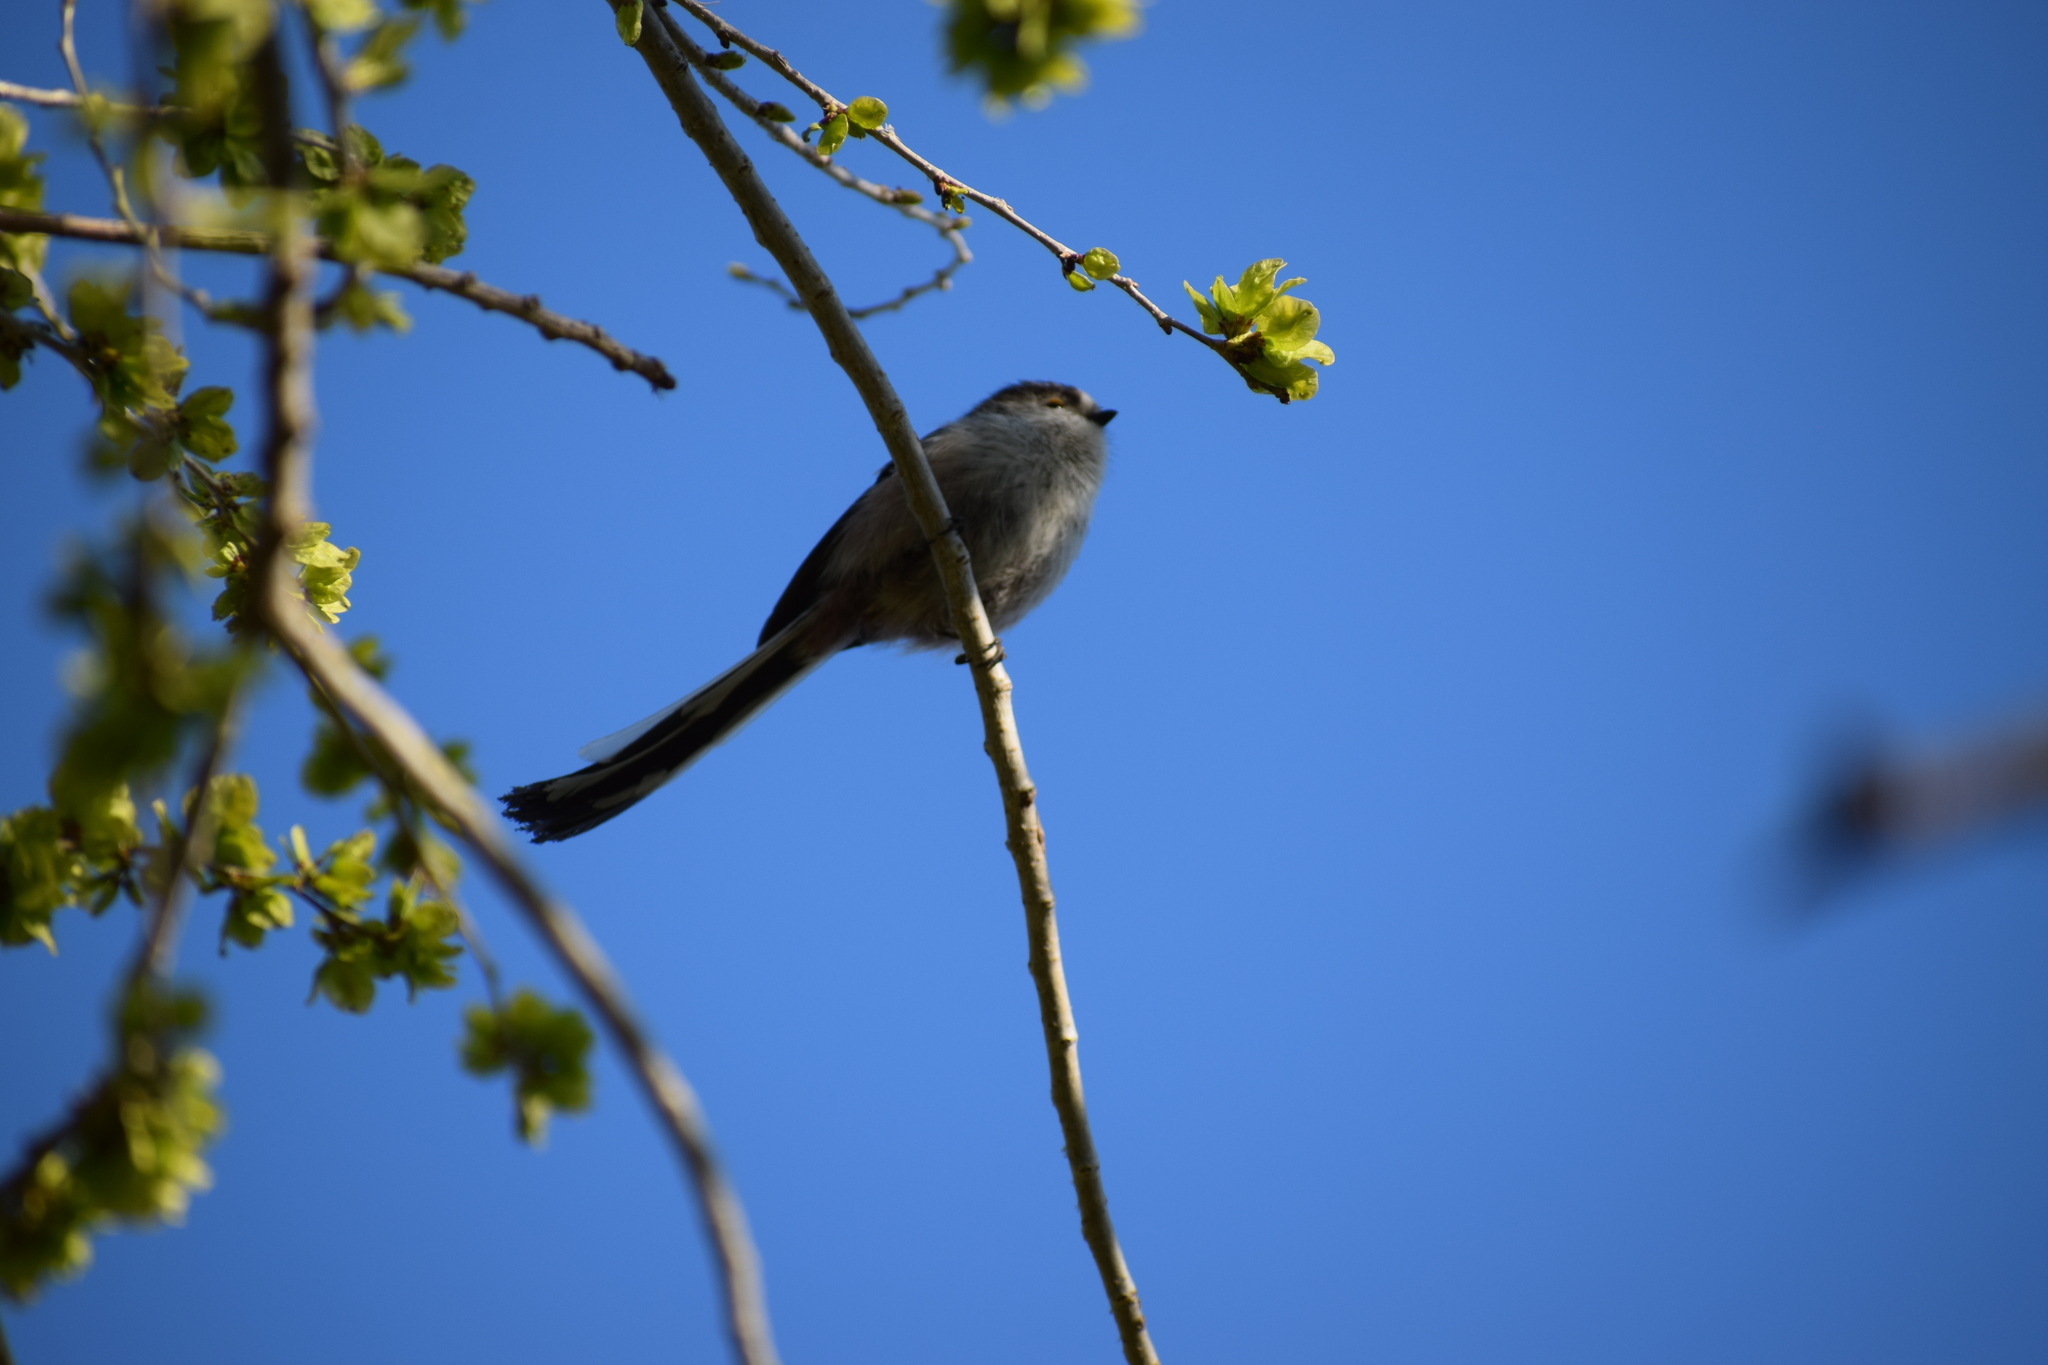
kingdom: Animalia
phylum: Chordata
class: Aves
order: Passeriformes
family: Aegithalidae
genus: Aegithalos
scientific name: Aegithalos caudatus
